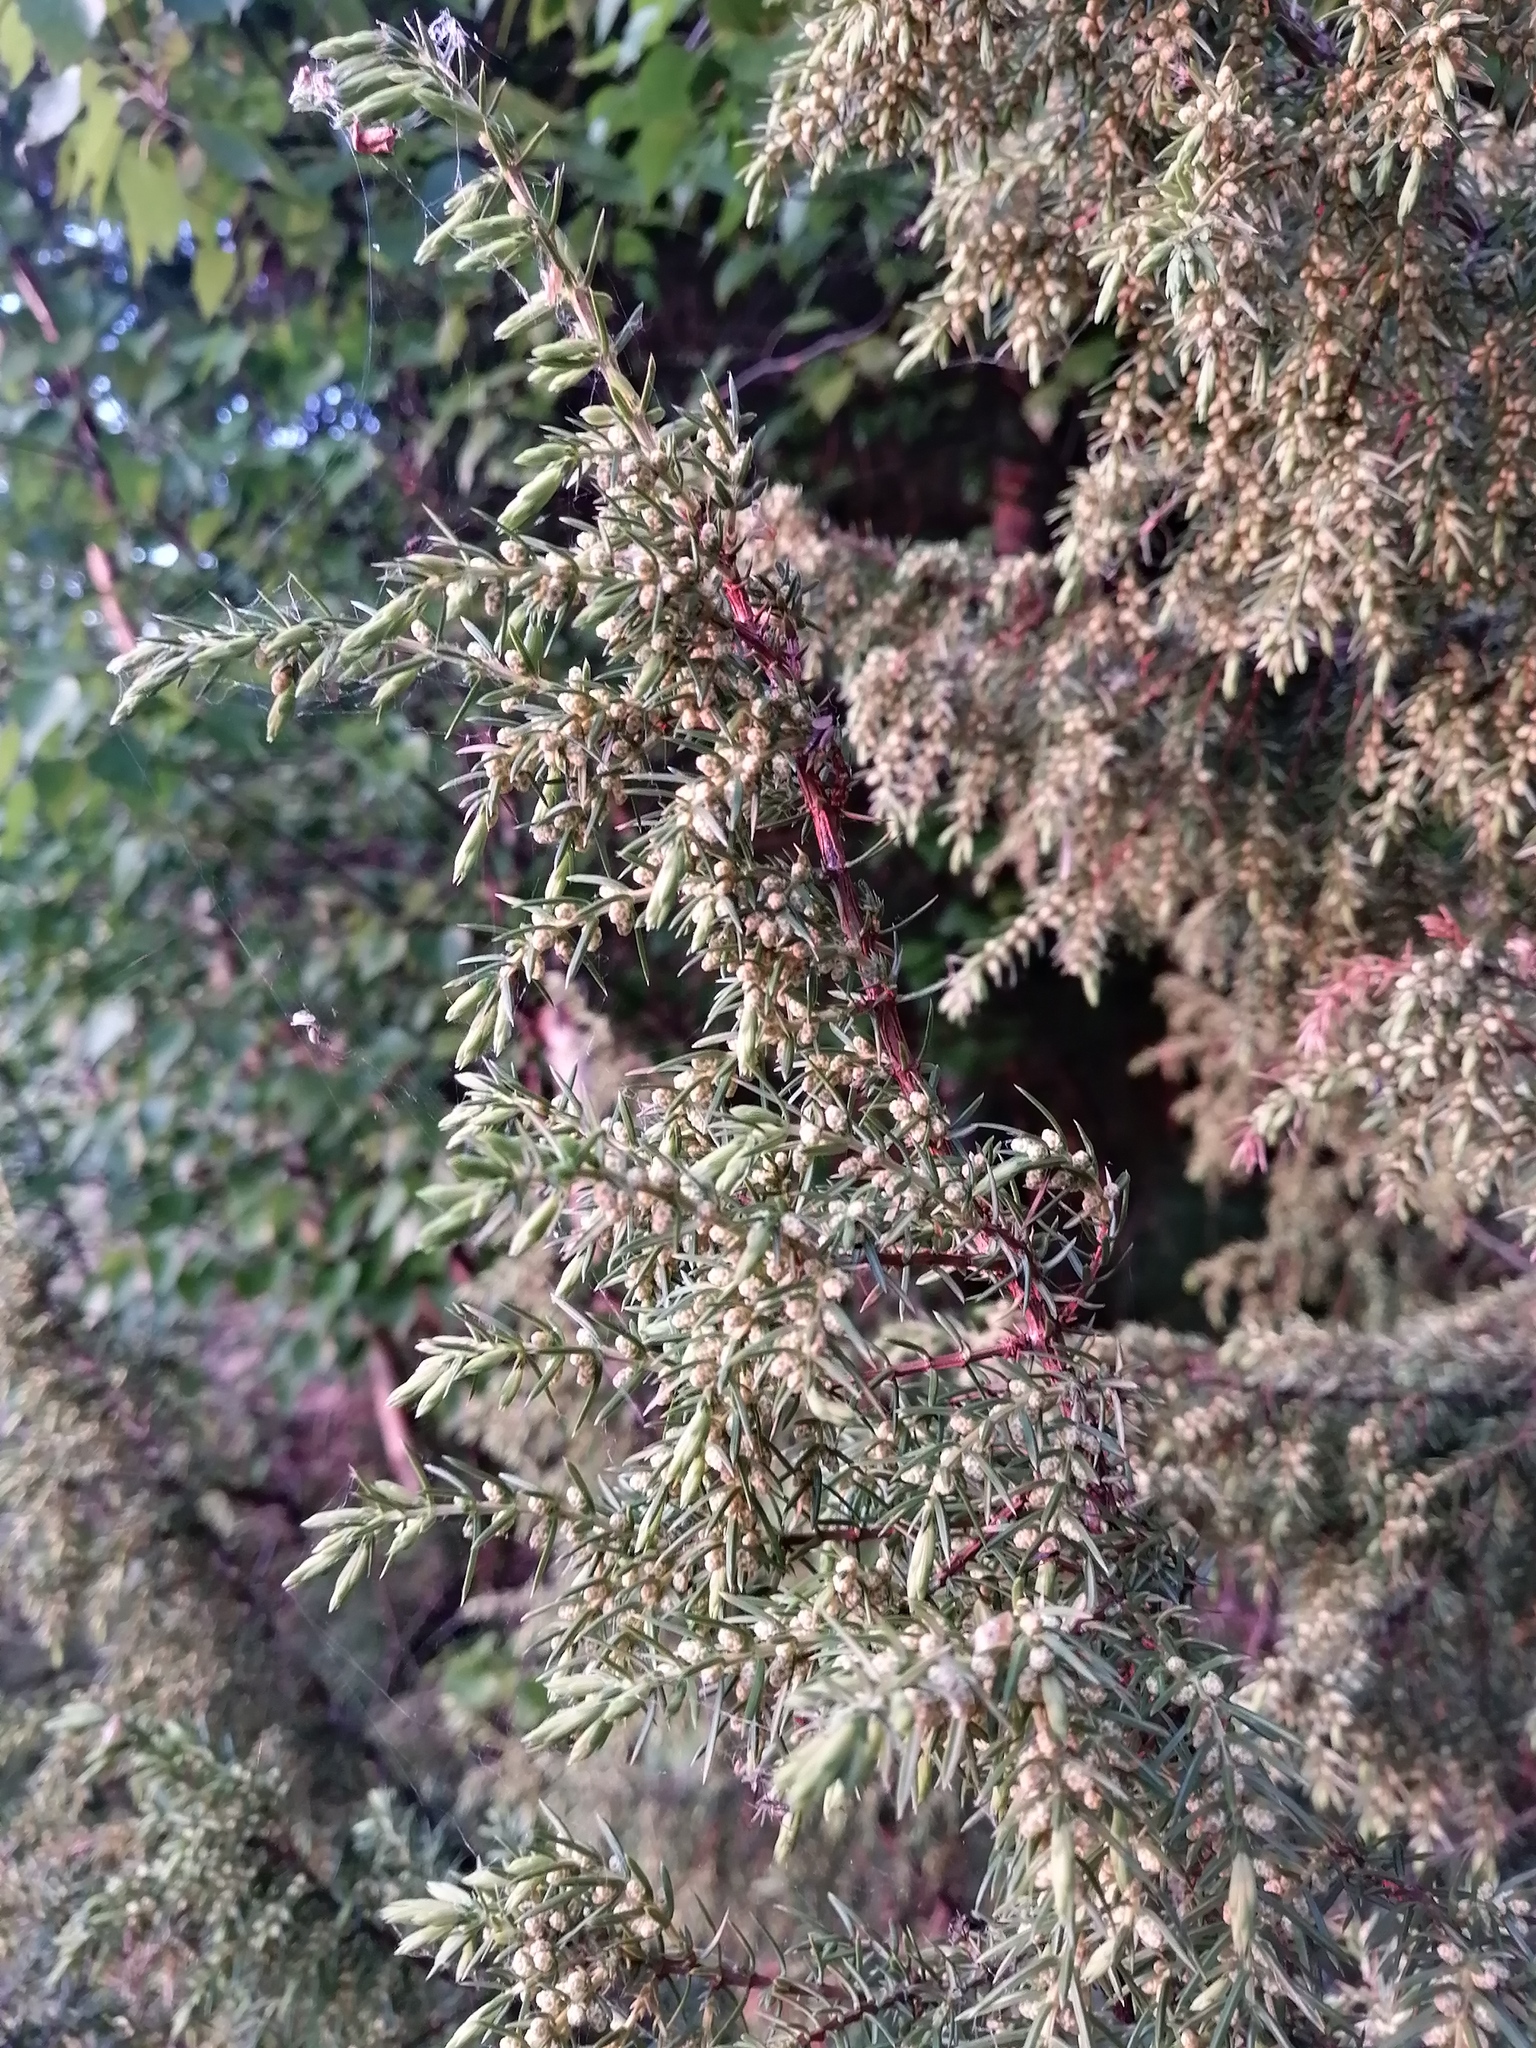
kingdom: Plantae
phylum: Tracheophyta
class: Pinopsida
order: Pinales
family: Cupressaceae
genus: Juniperus
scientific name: Juniperus communis
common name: Common juniper
